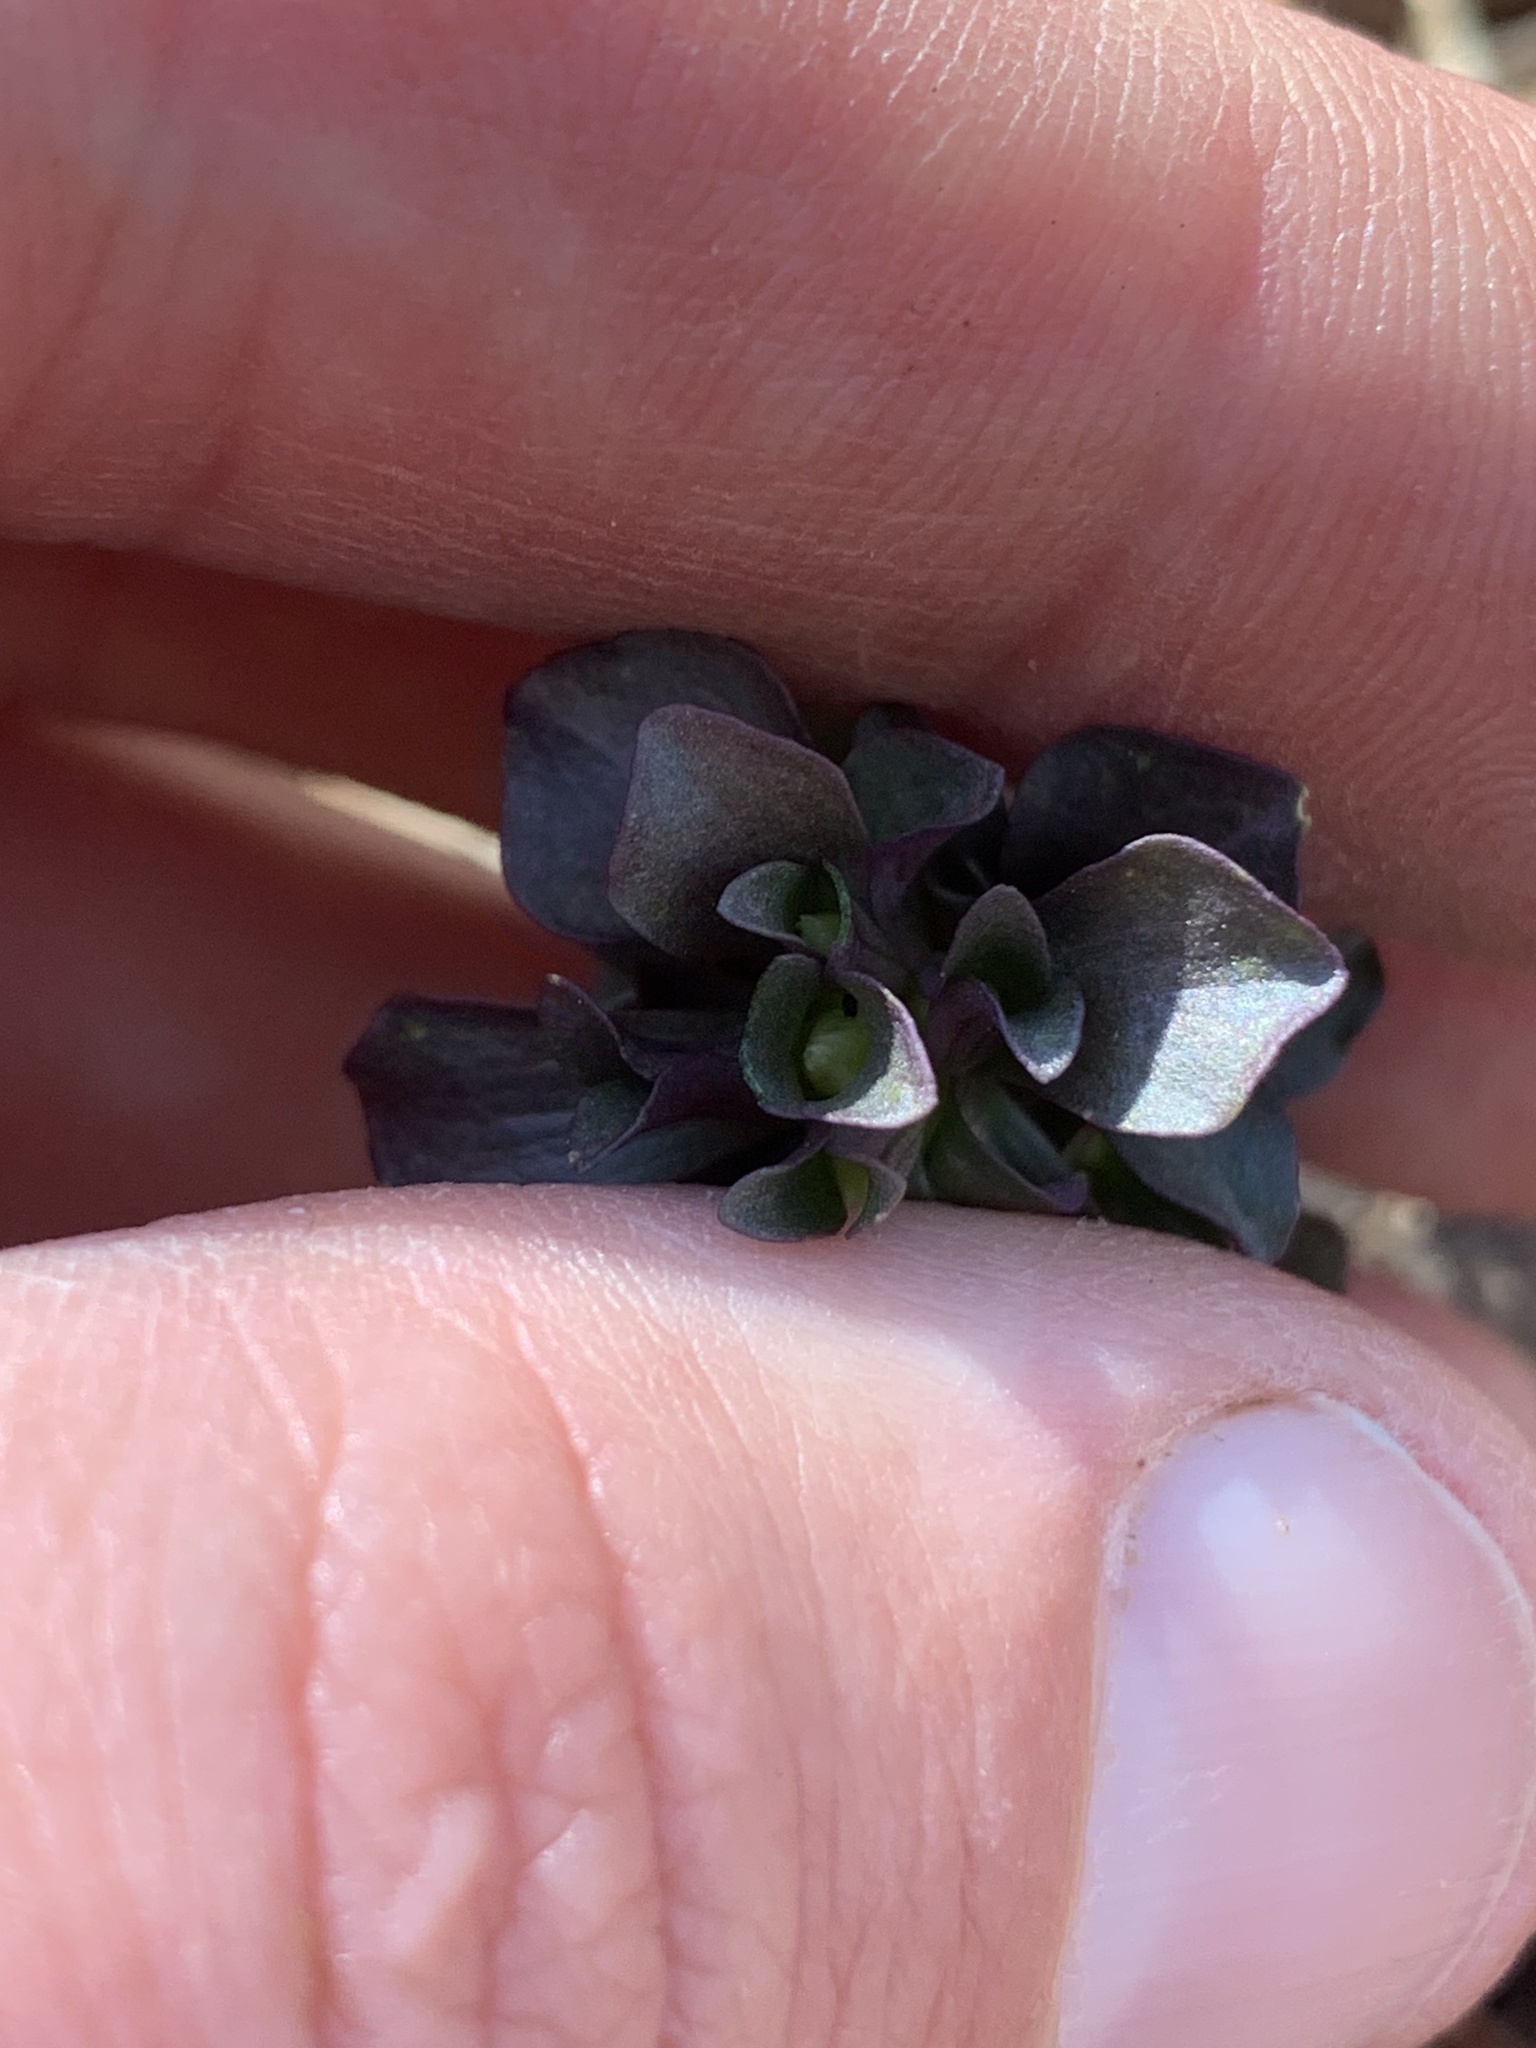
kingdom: Plantae
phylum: Tracheophyta
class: Magnoliopsida
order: Gentianales
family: Gentianaceae
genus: Obolaria
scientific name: Obolaria virginica
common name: Pennywort
